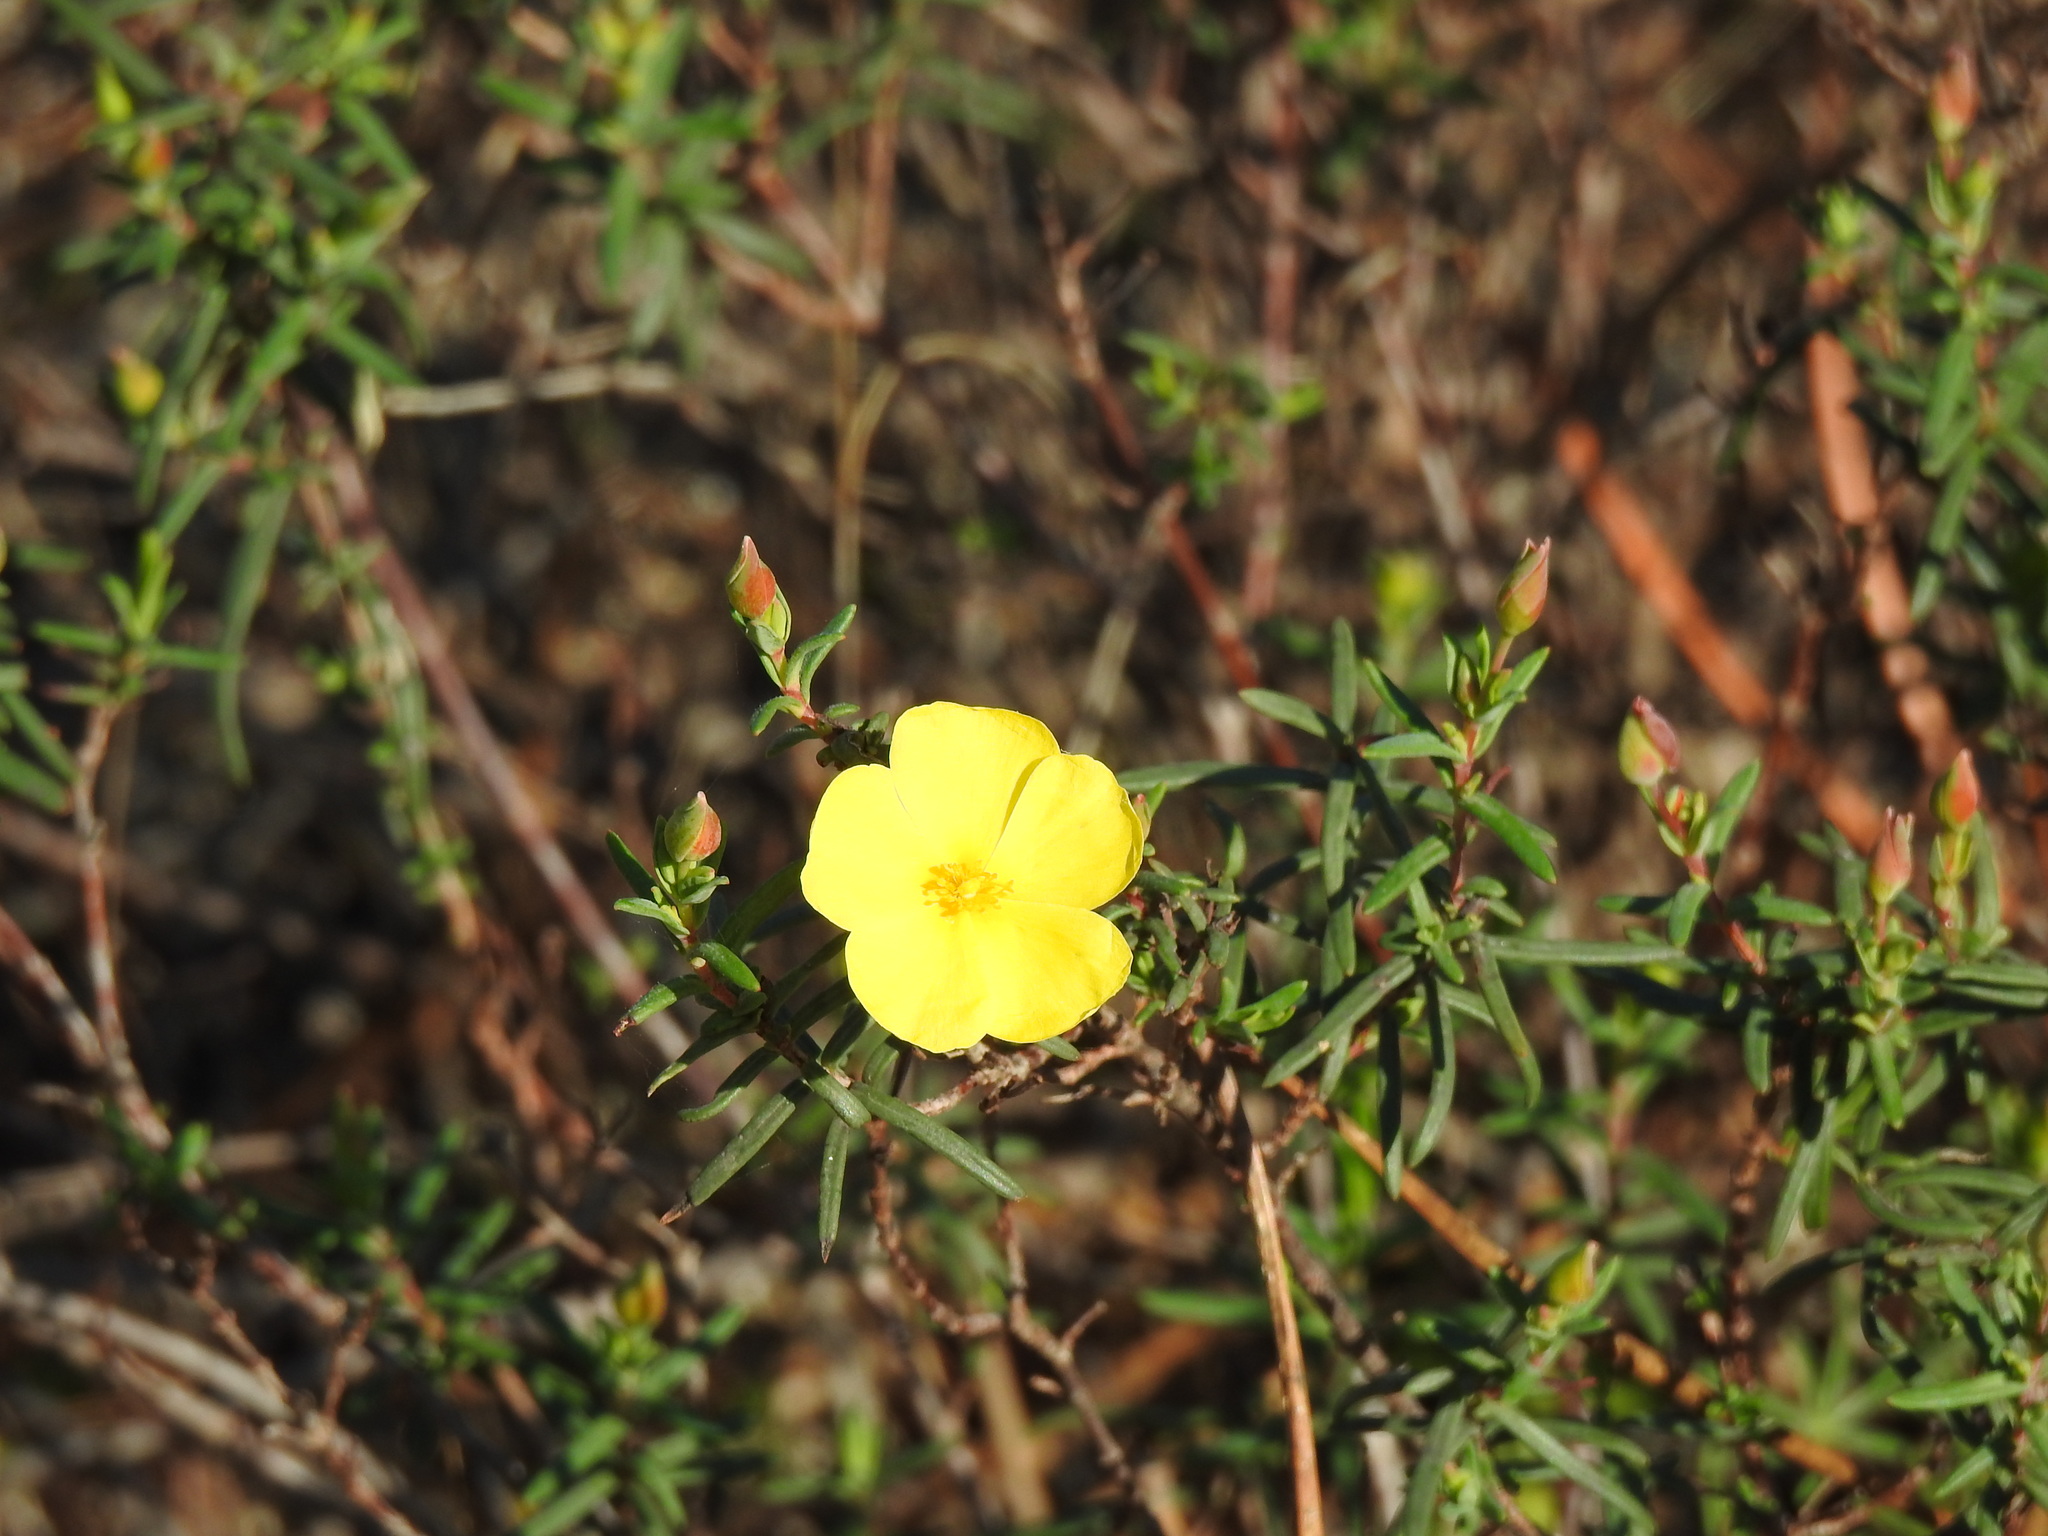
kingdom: Plantae
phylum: Tracheophyta
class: Magnoliopsida
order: Malvales
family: Cistaceae
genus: Halimium
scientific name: Halimium calycinum
